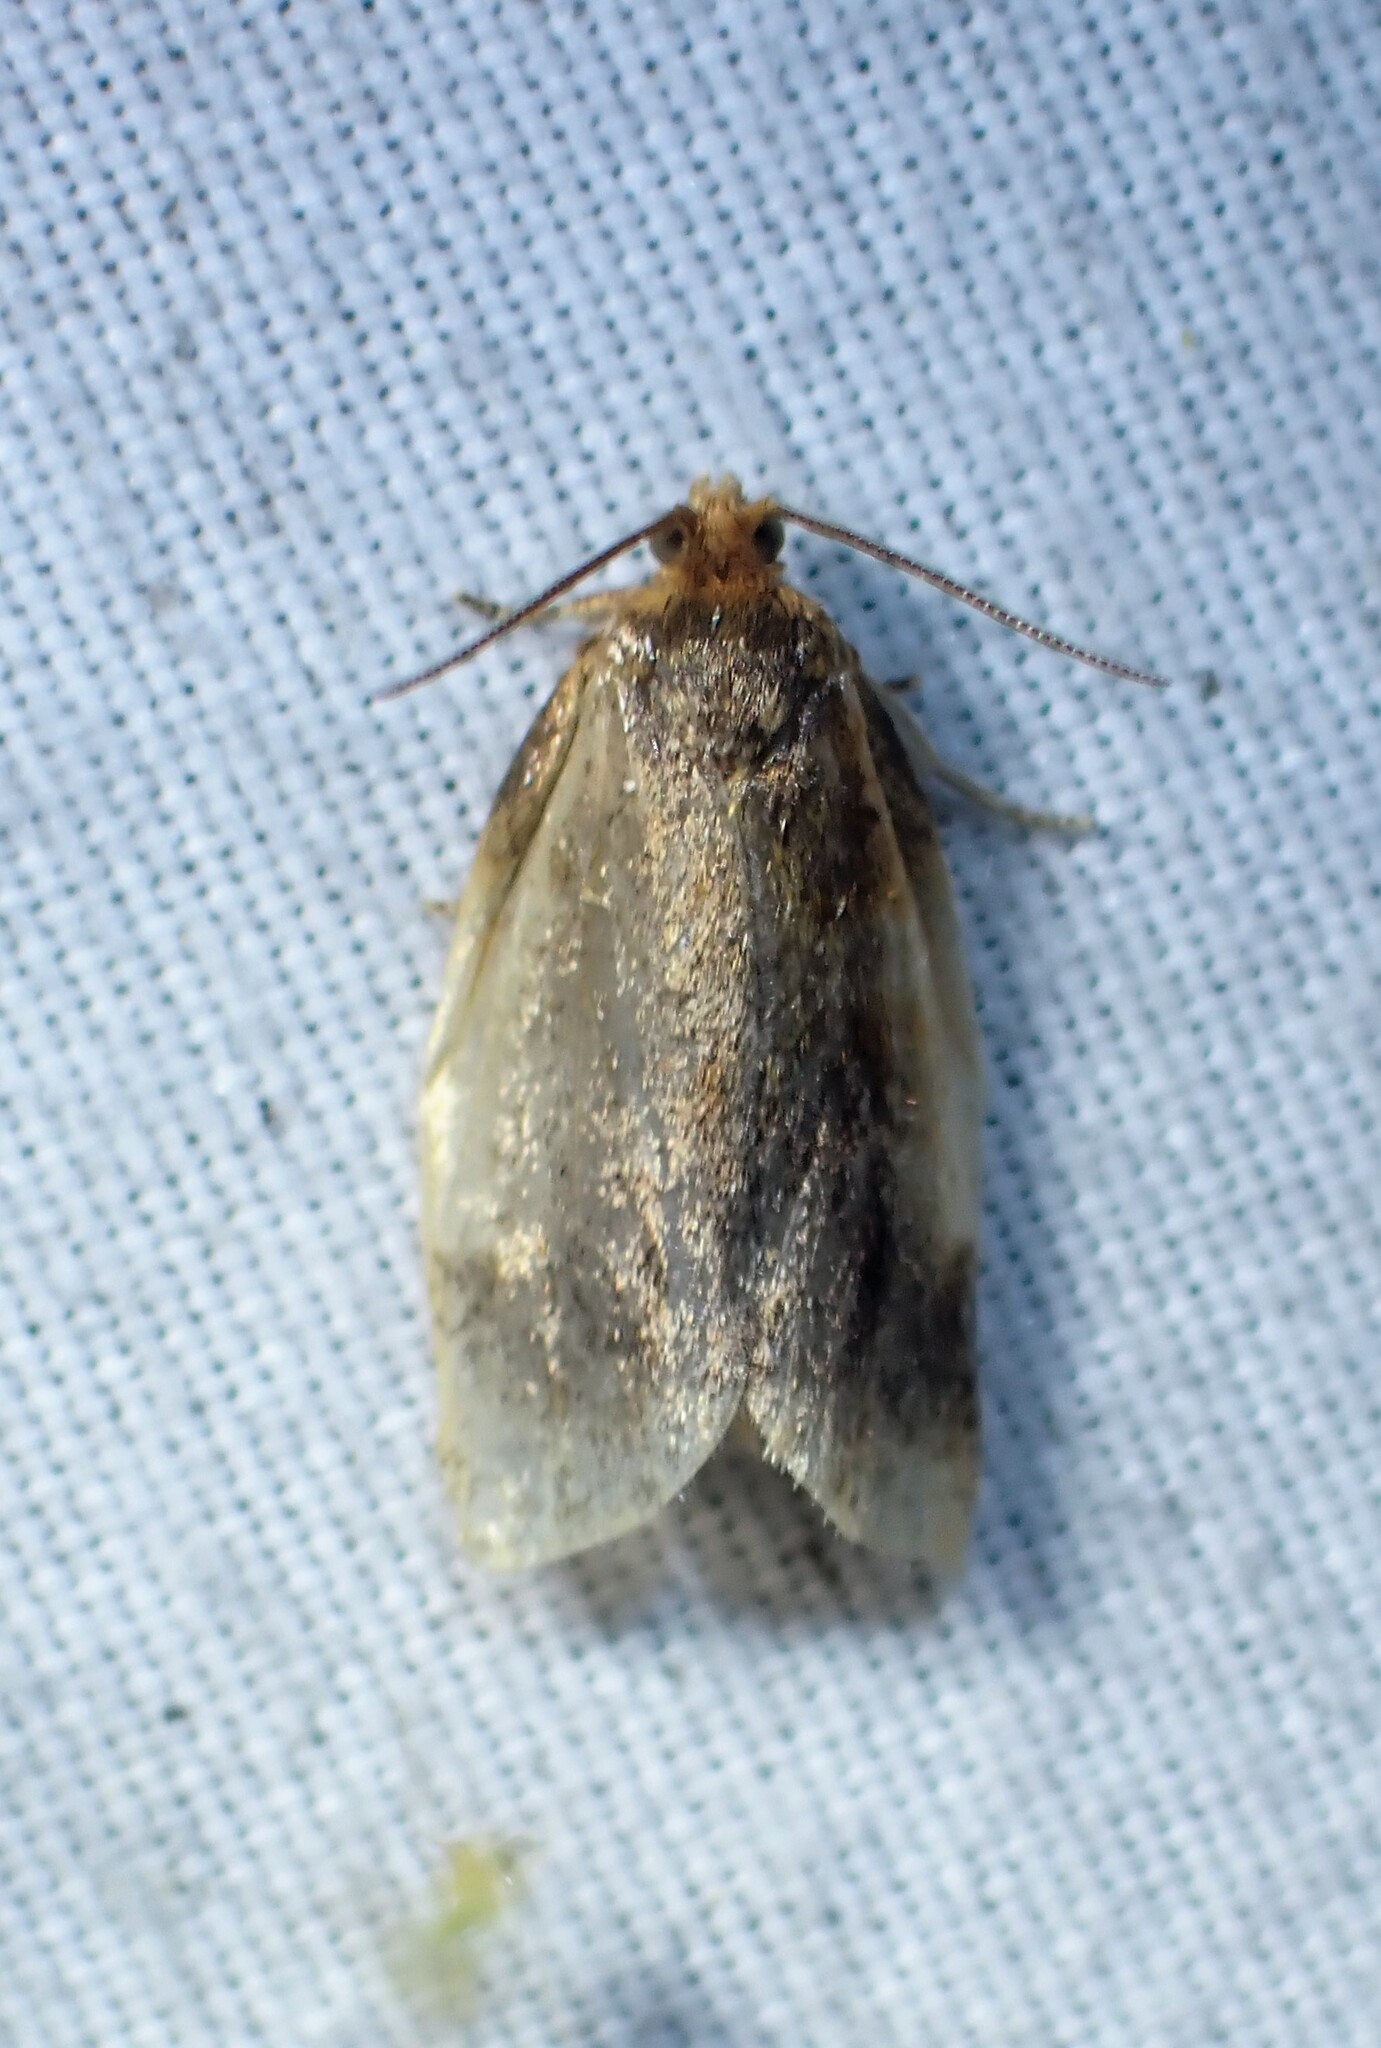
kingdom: Animalia
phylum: Arthropoda
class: Insecta
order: Lepidoptera
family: Tortricidae
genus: Clepsis
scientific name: Clepsis melaleucanus
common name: American apple tortrix
